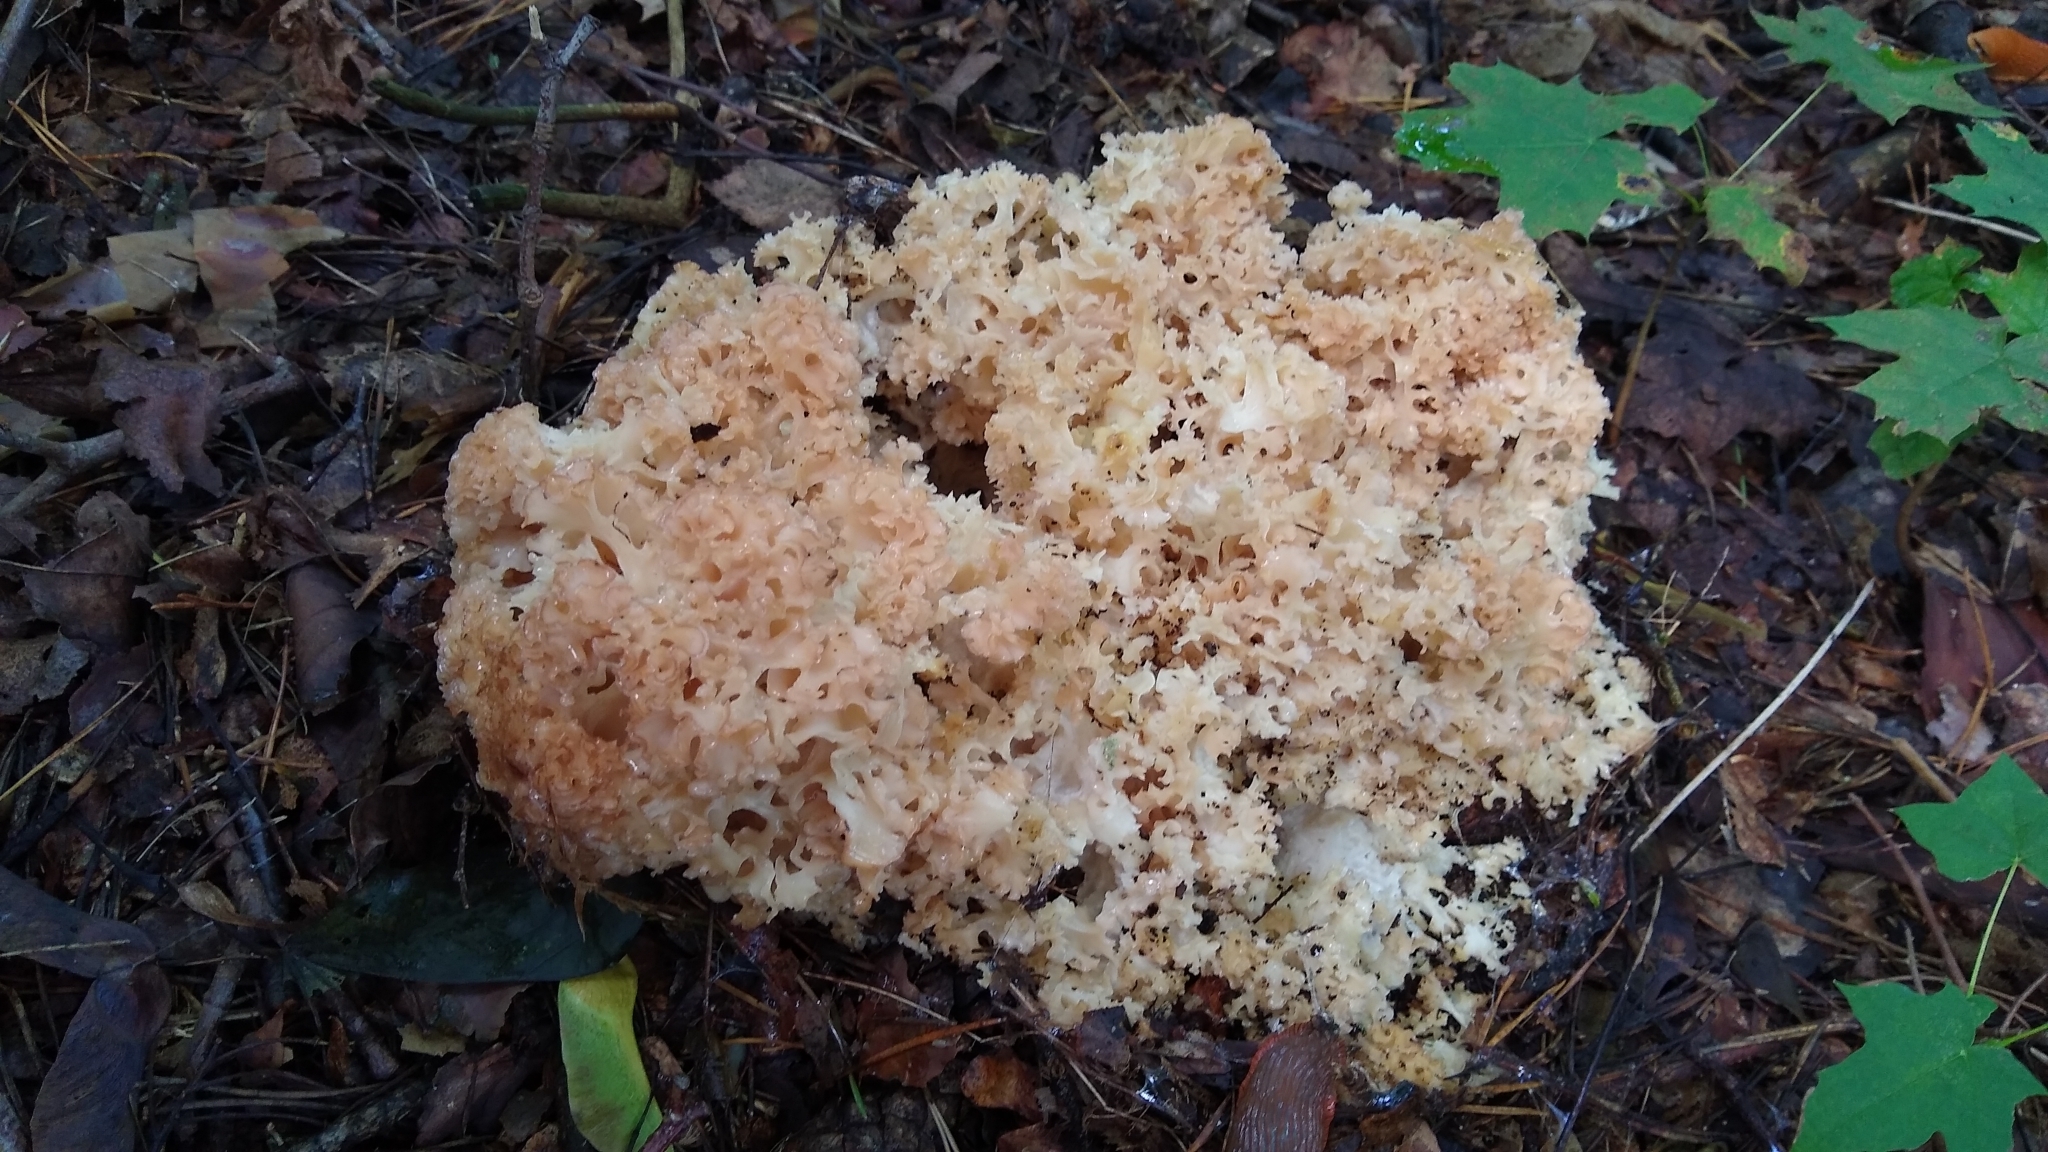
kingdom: Fungi
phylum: Basidiomycota
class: Agaricomycetes
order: Polyporales
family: Sparassidaceae
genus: Sparassis
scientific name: Sparassis crispa
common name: Brain fungus
